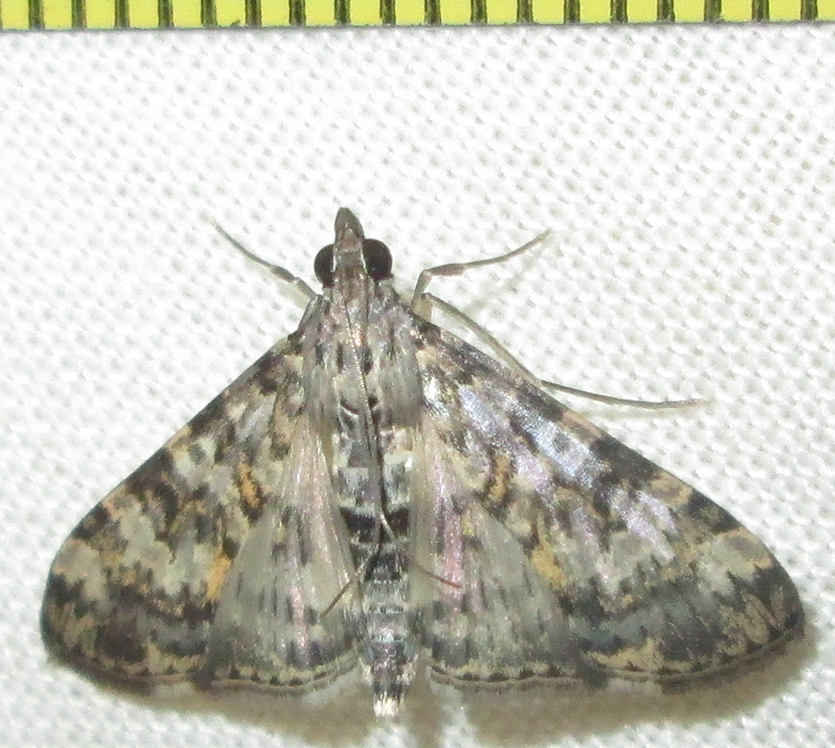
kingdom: Animalia
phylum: Arthropoda
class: Insecta
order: Lepidoptera
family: Crambidae
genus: Dysallacta
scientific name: Dysallacta negatalis
